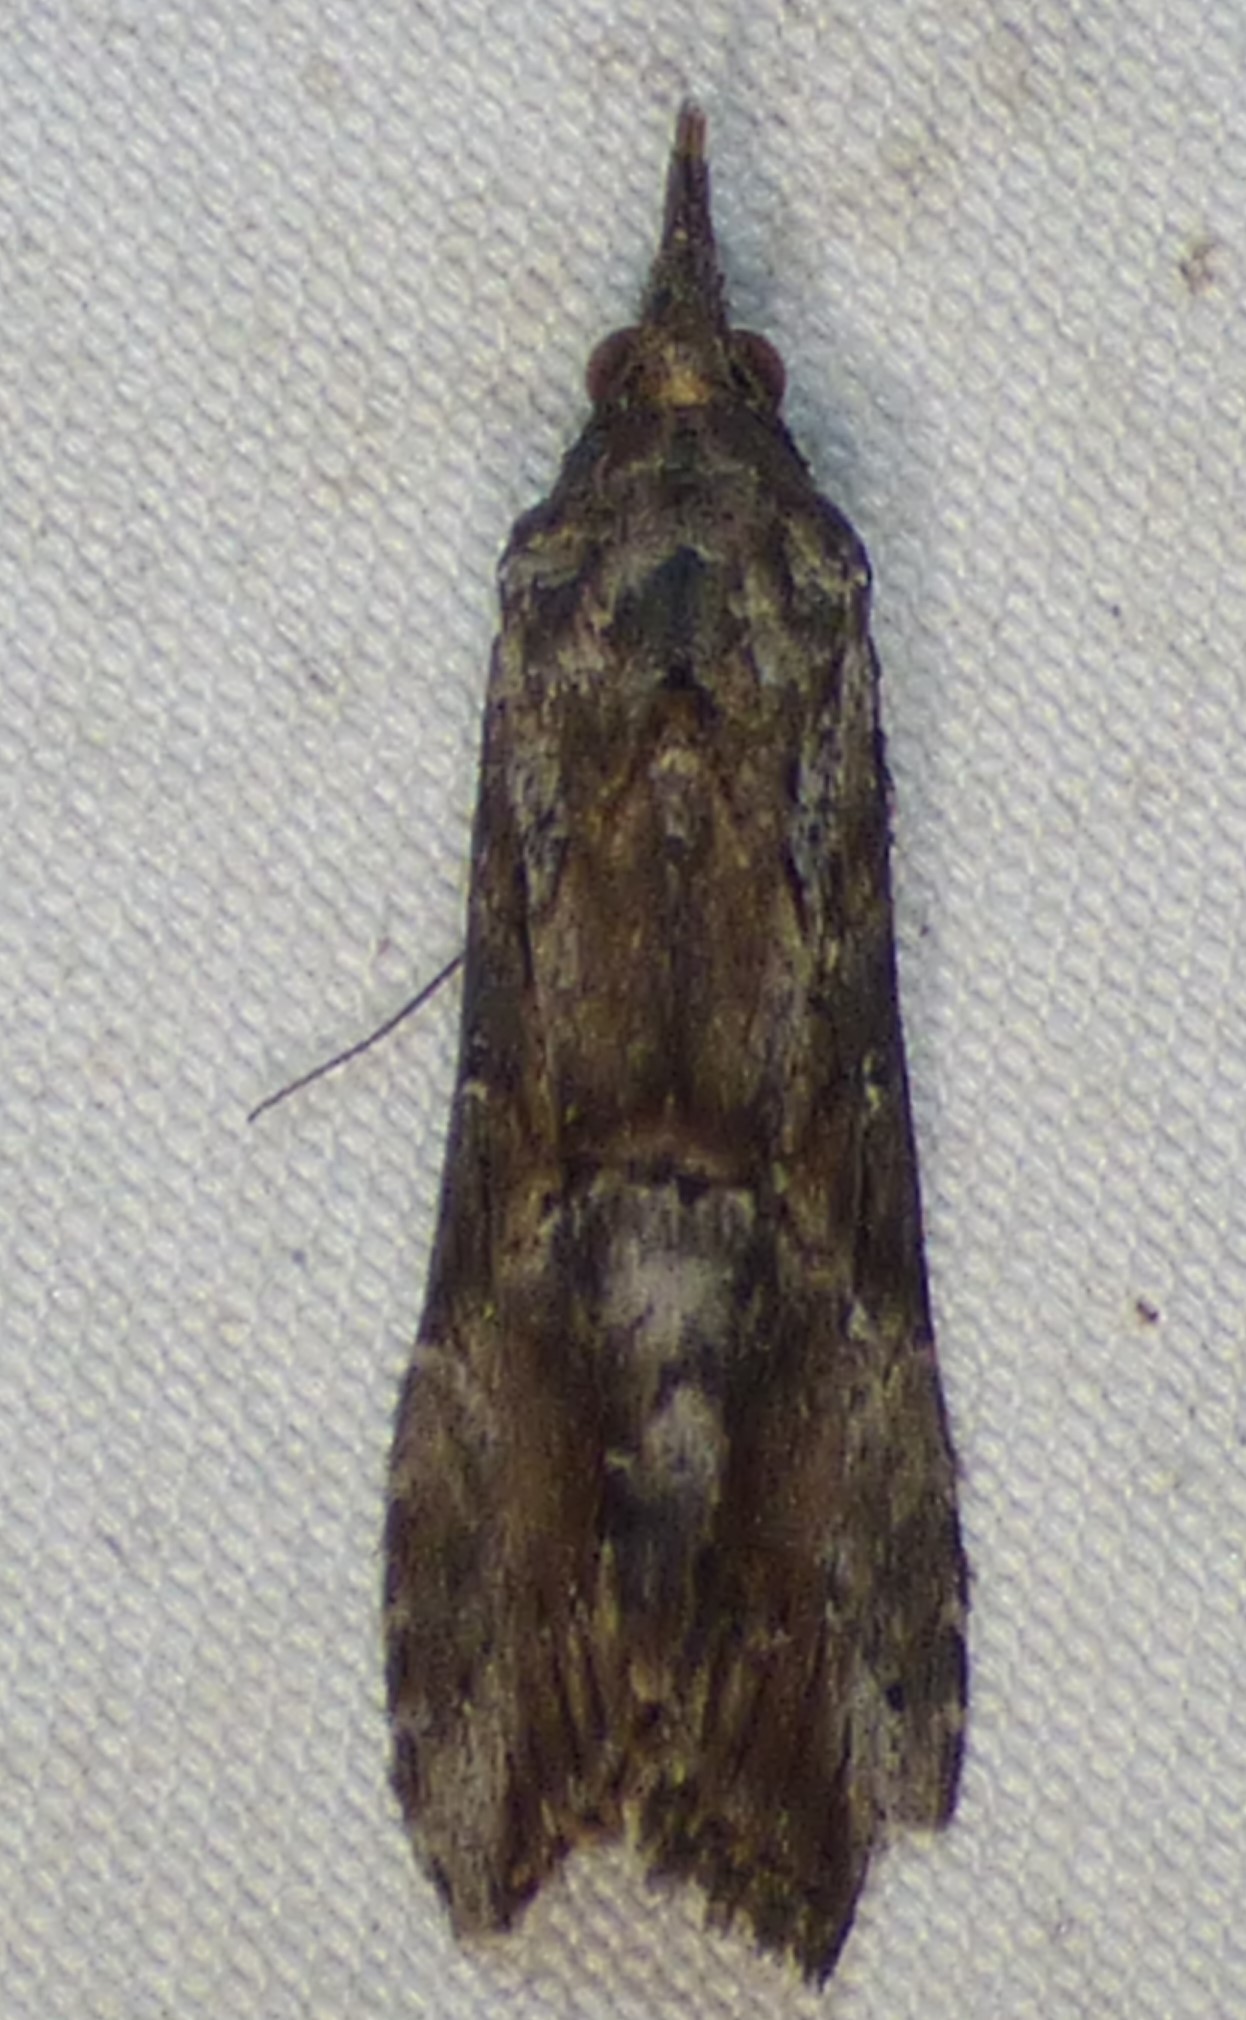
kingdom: Animalia
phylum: Arthropoda
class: Insecta
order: Lepidoptera
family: Erebidae
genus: Hypena
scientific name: Hypena scabra
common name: Green cloverworm
